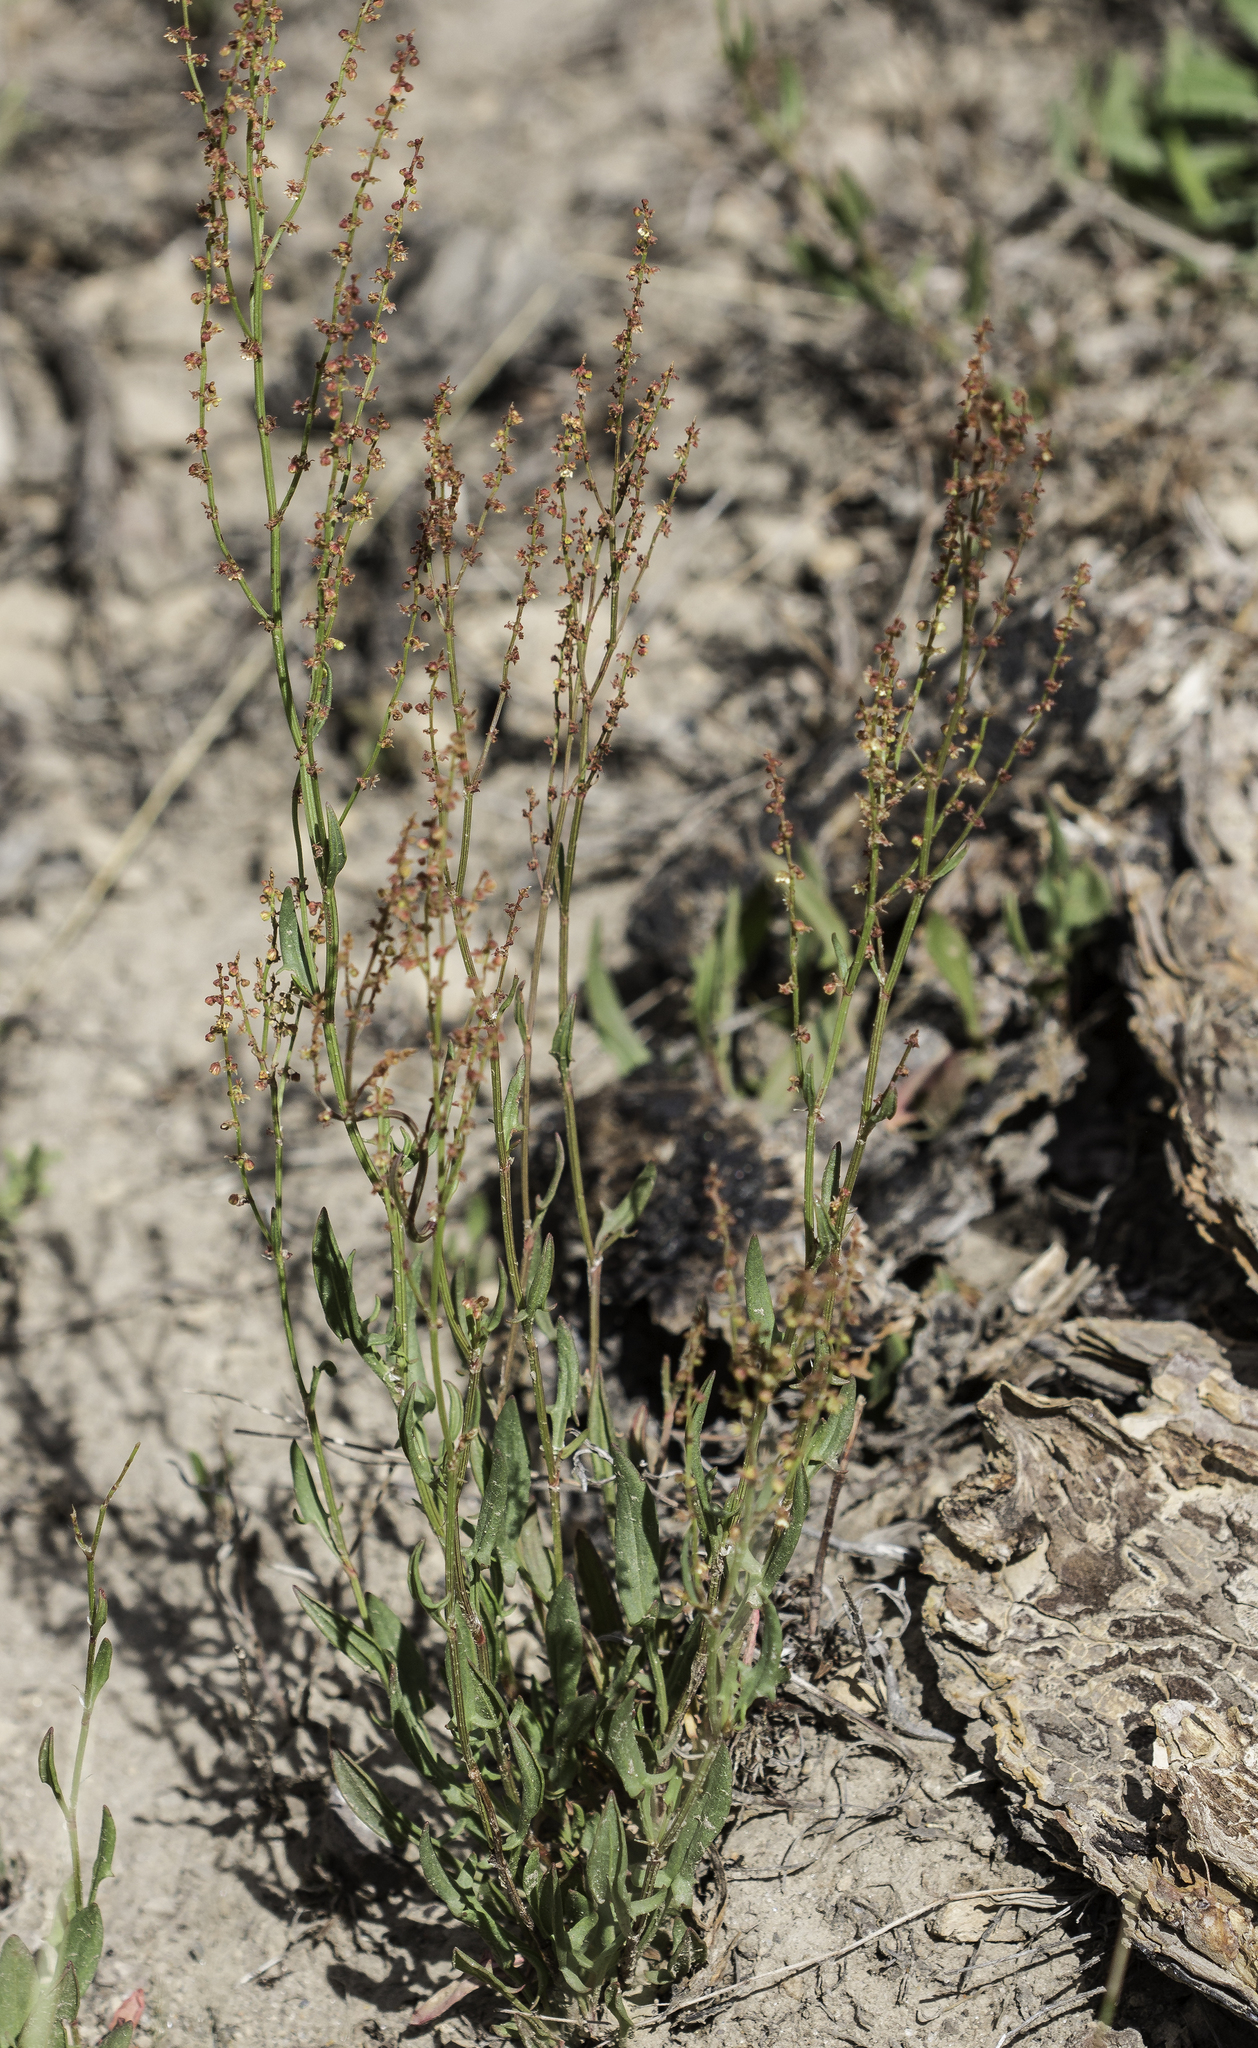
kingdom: Plantae
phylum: Tracheophyta
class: Magnoliopsida
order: Caryophyllales
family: Polygonaceae
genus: Rumex
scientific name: Rumex acetosella
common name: Common sheep sorrel
